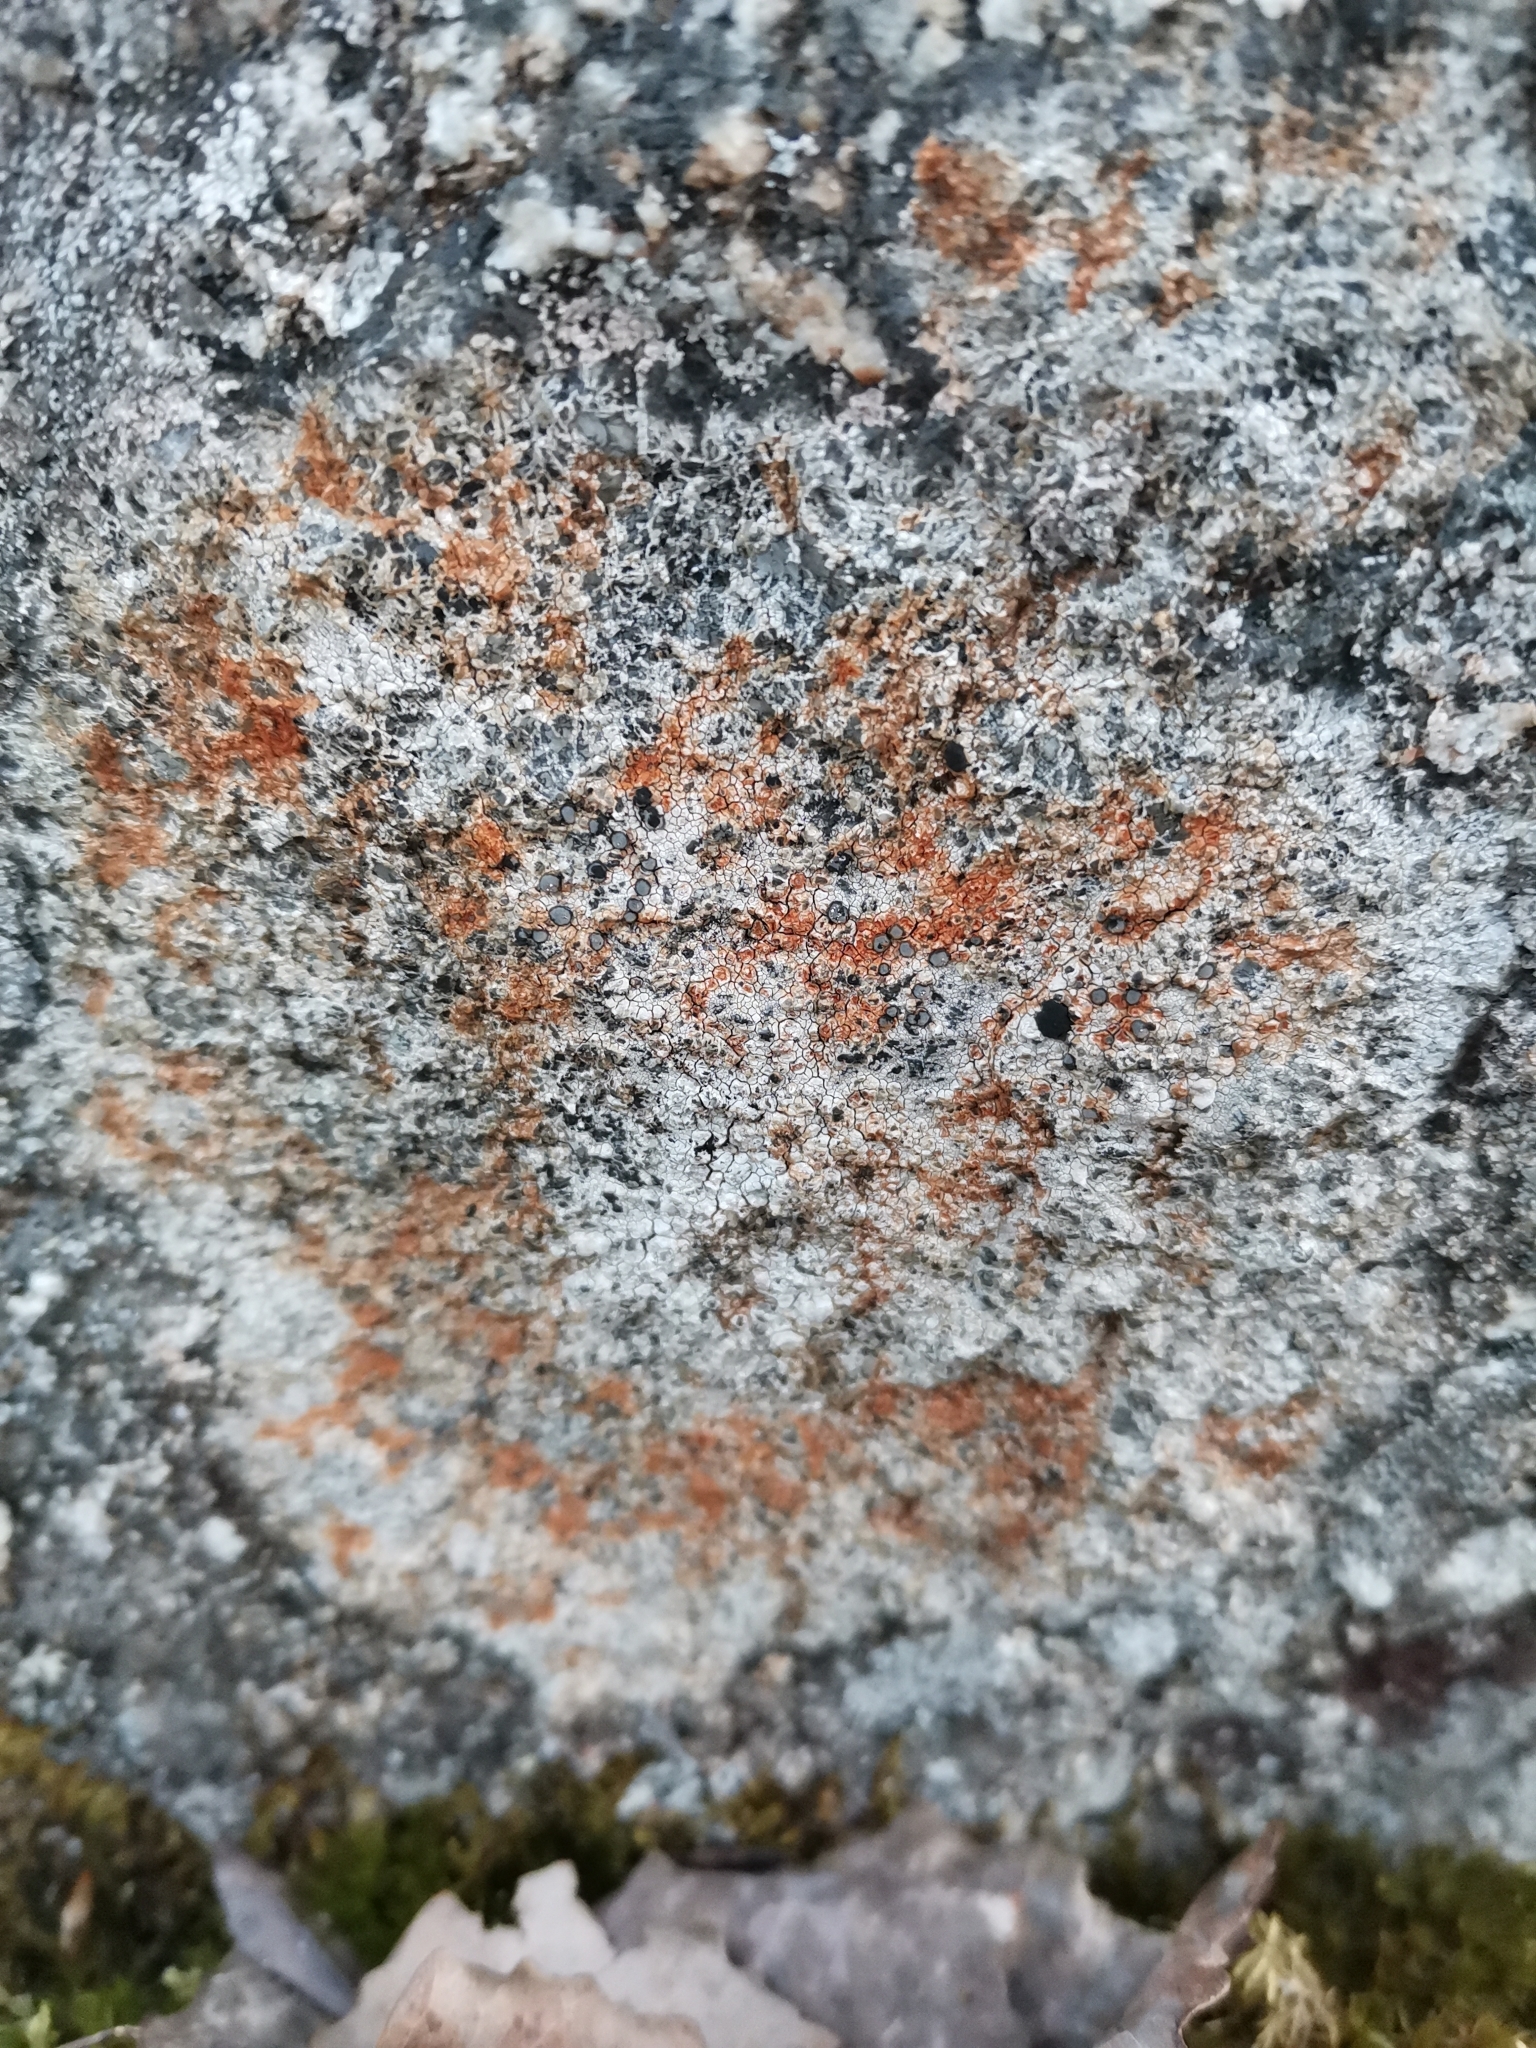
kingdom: Fungi
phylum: Ascomycota
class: Lecanoromycetes
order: Lecideales
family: Lecideaceae
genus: Lecidea
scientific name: Lecidea lithophila
